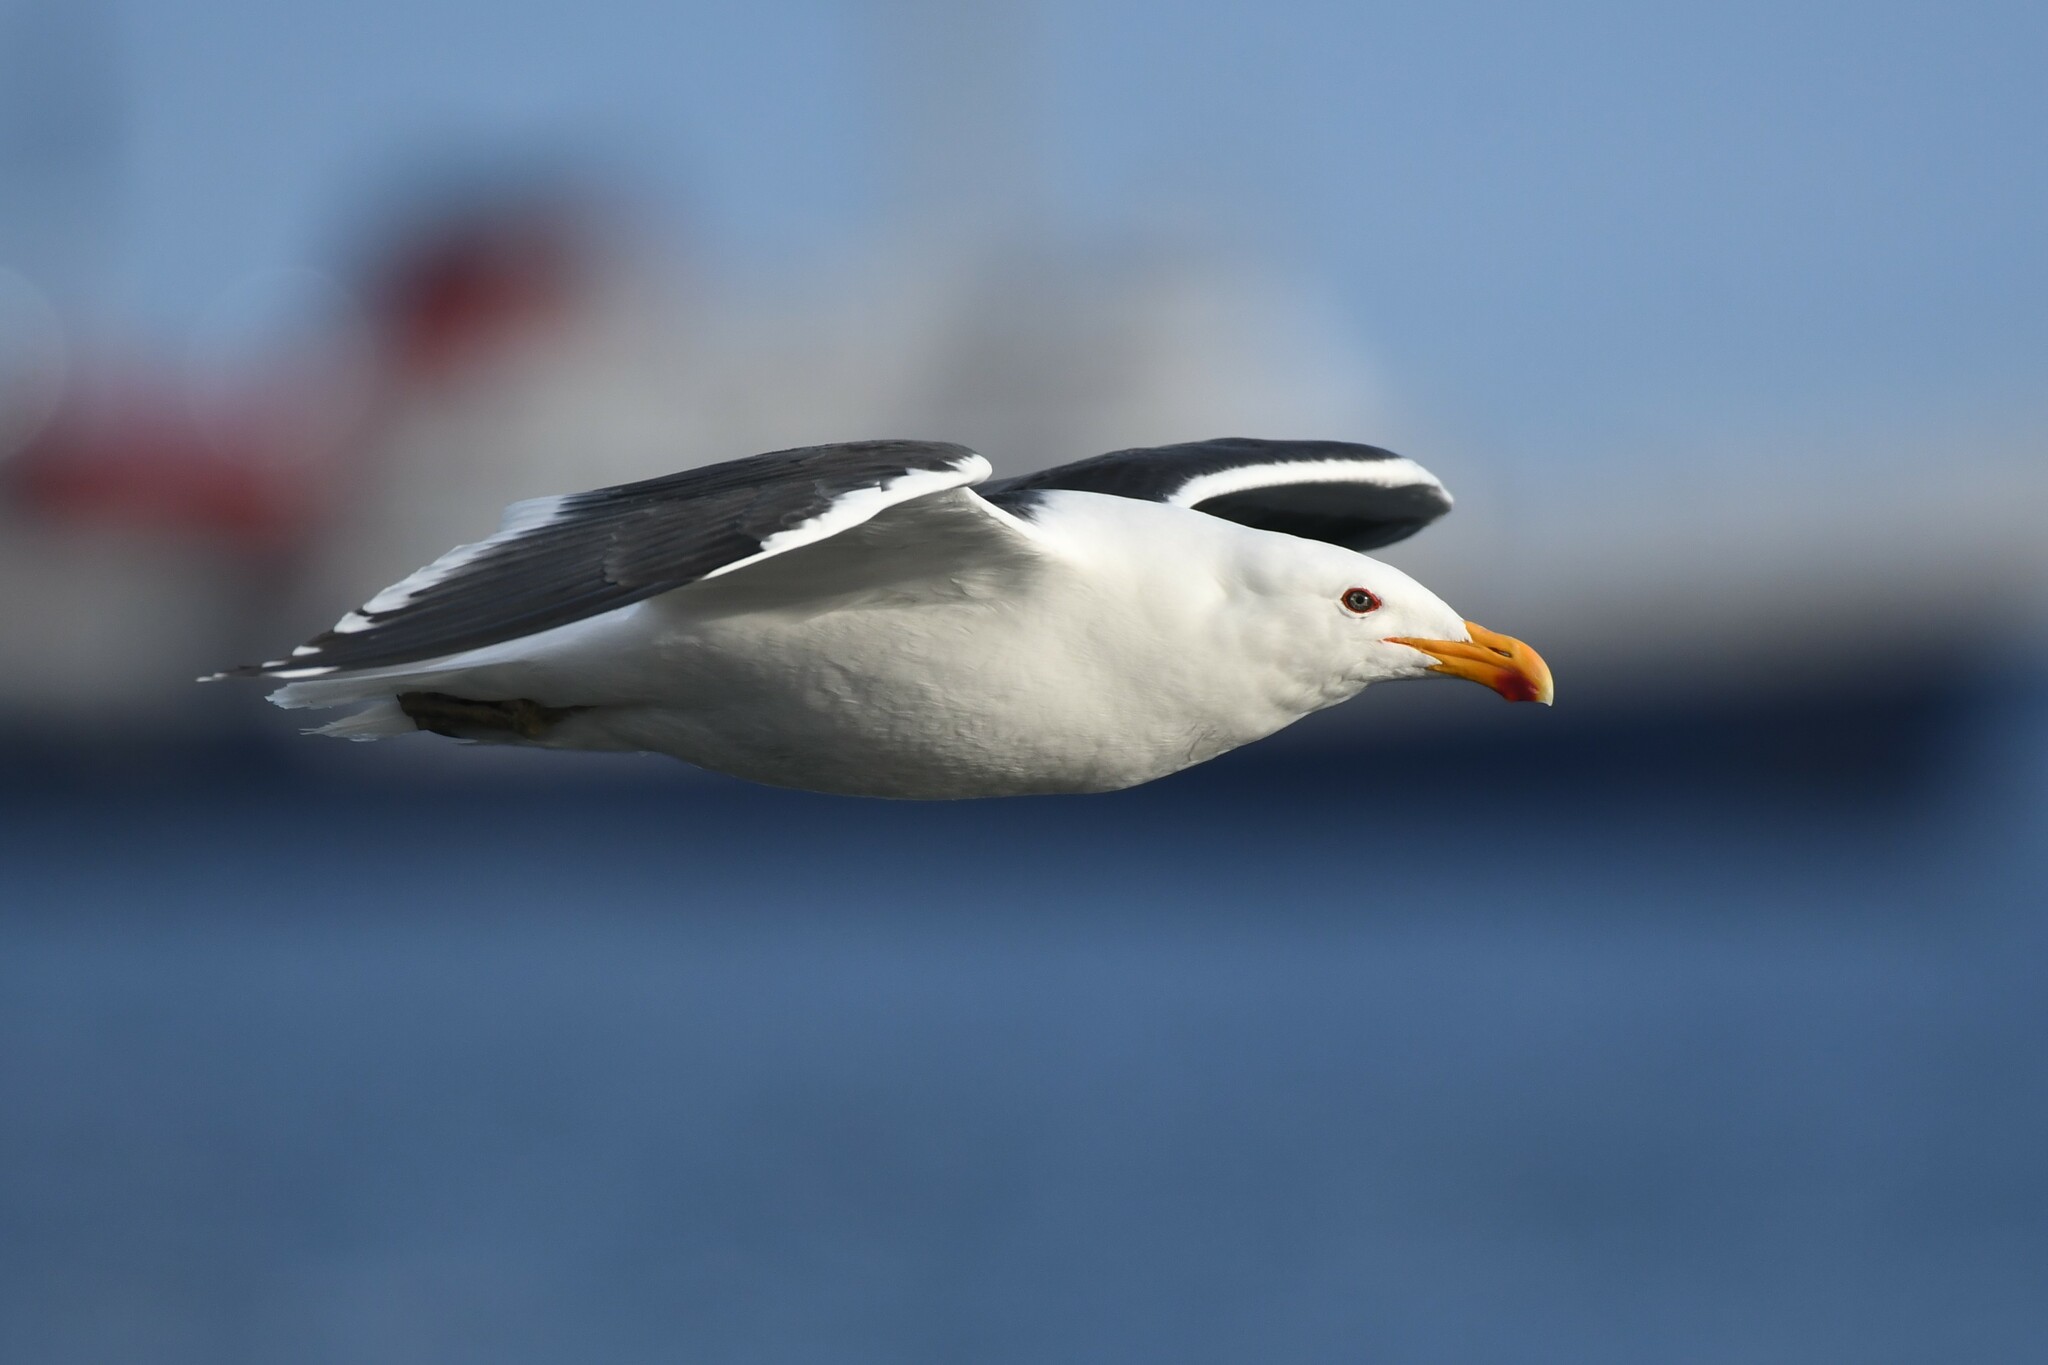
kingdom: Animalia
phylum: Chordata
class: Aves
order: Charadriiformes
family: Laridae
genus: Larus
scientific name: Larus dominicanus
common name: Kelp gull
